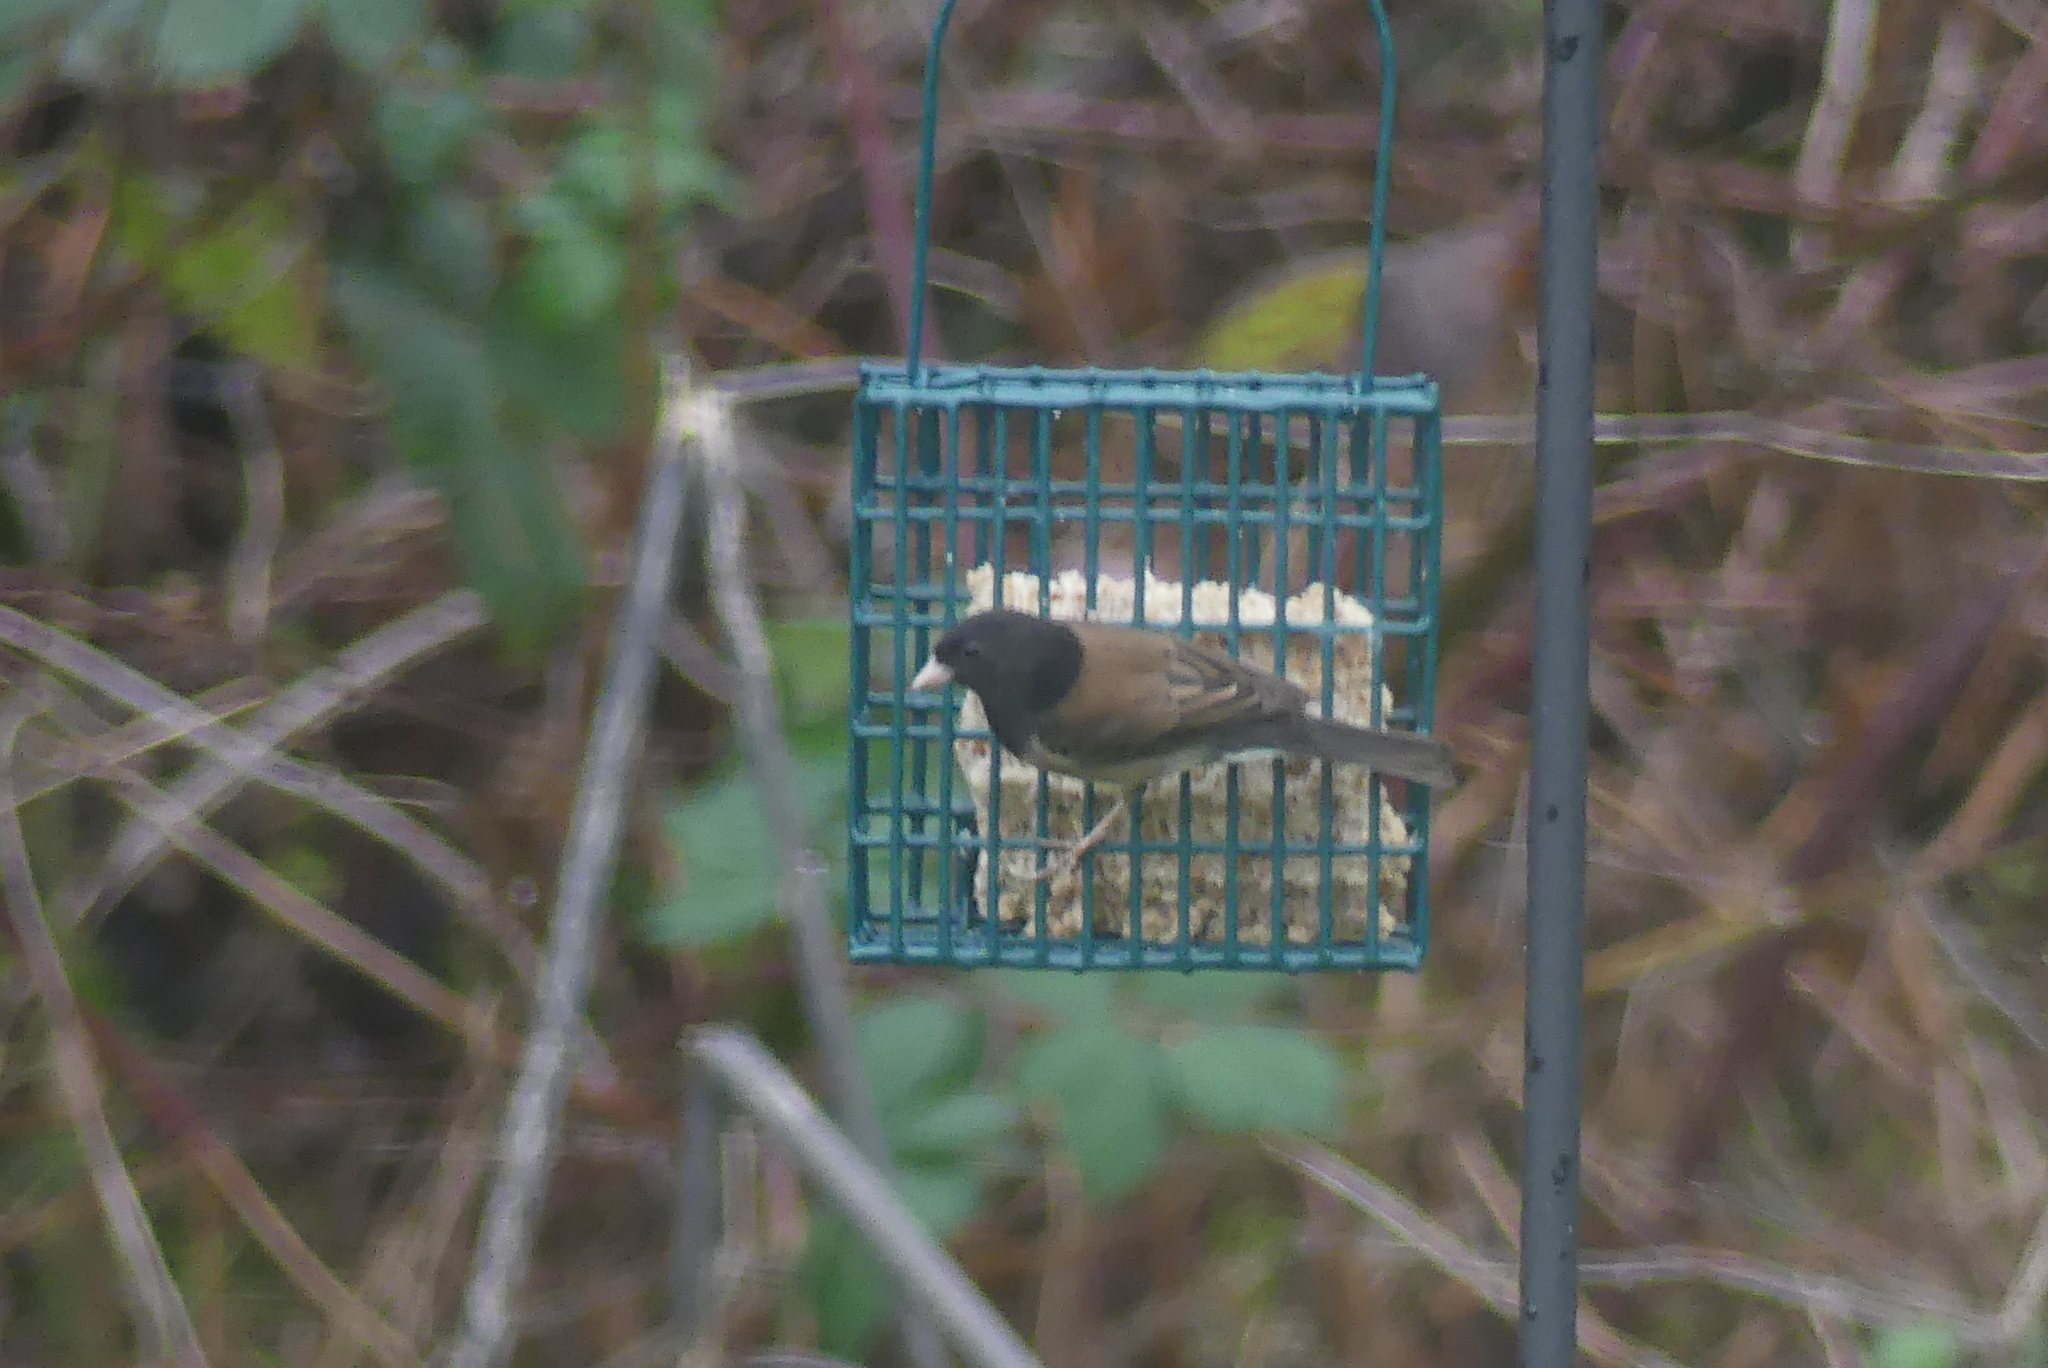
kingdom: Animalia
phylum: Chordata
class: Aves
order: Passeriformes
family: Passerellidae
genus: Junco
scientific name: Junco hyemalis
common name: Dark-eyed junco
